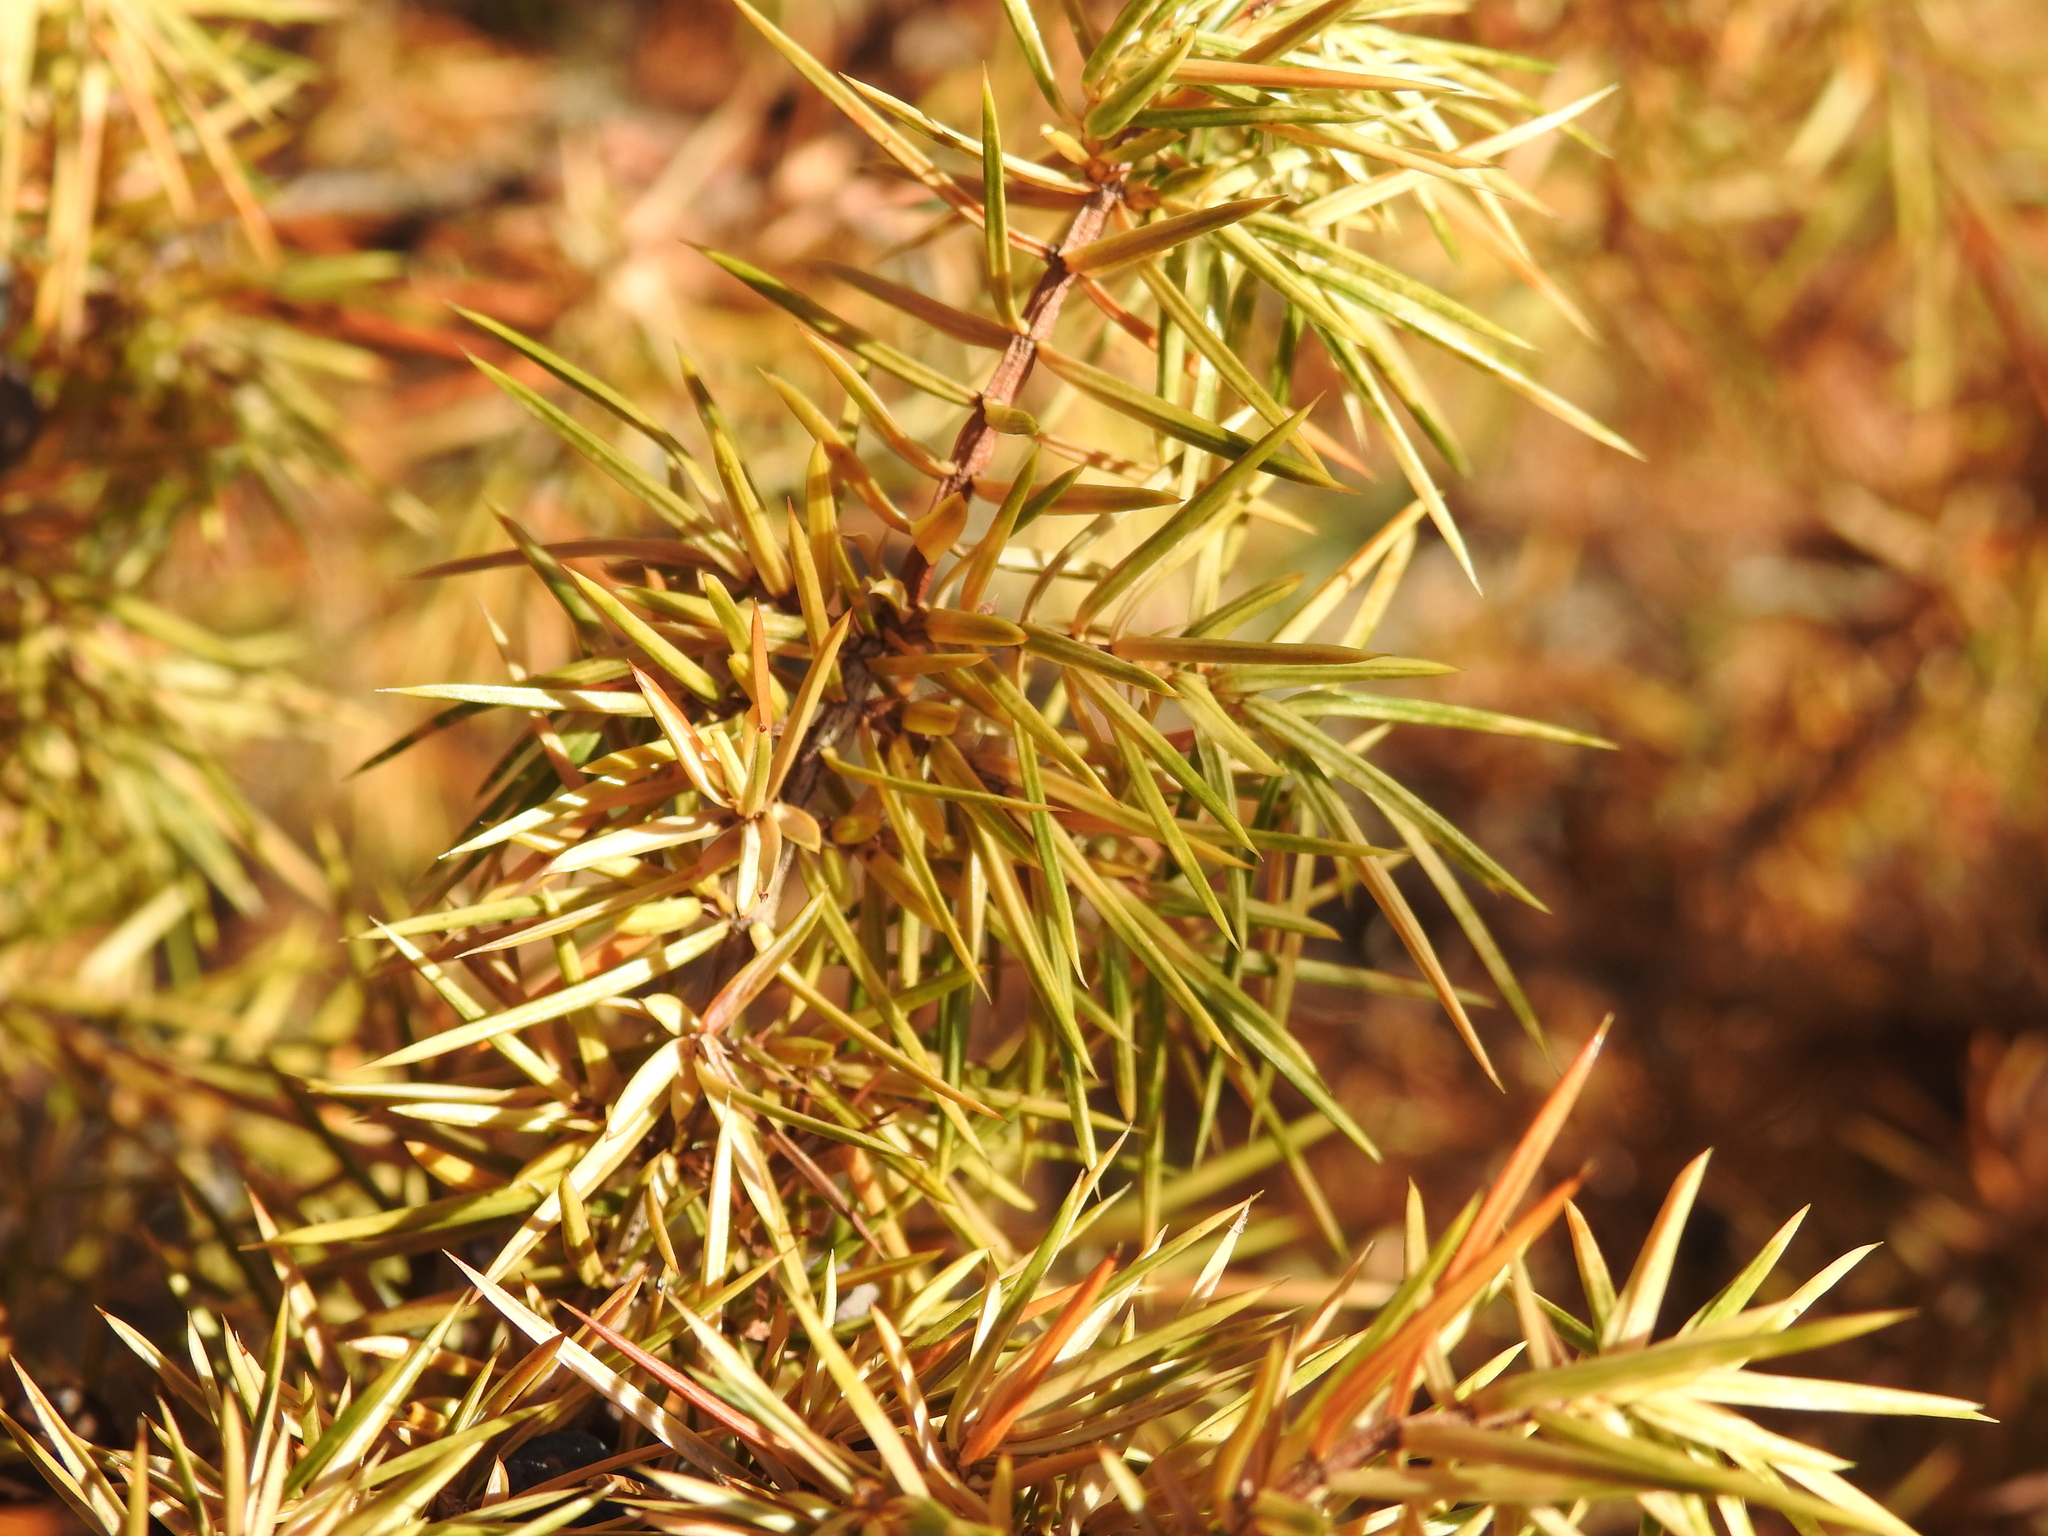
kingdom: Plantae
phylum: Tracheophyta
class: Pinopsida
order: Pinales
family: Cupressaceae
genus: Juniperus
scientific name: Juniperus communis
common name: Common juniper
